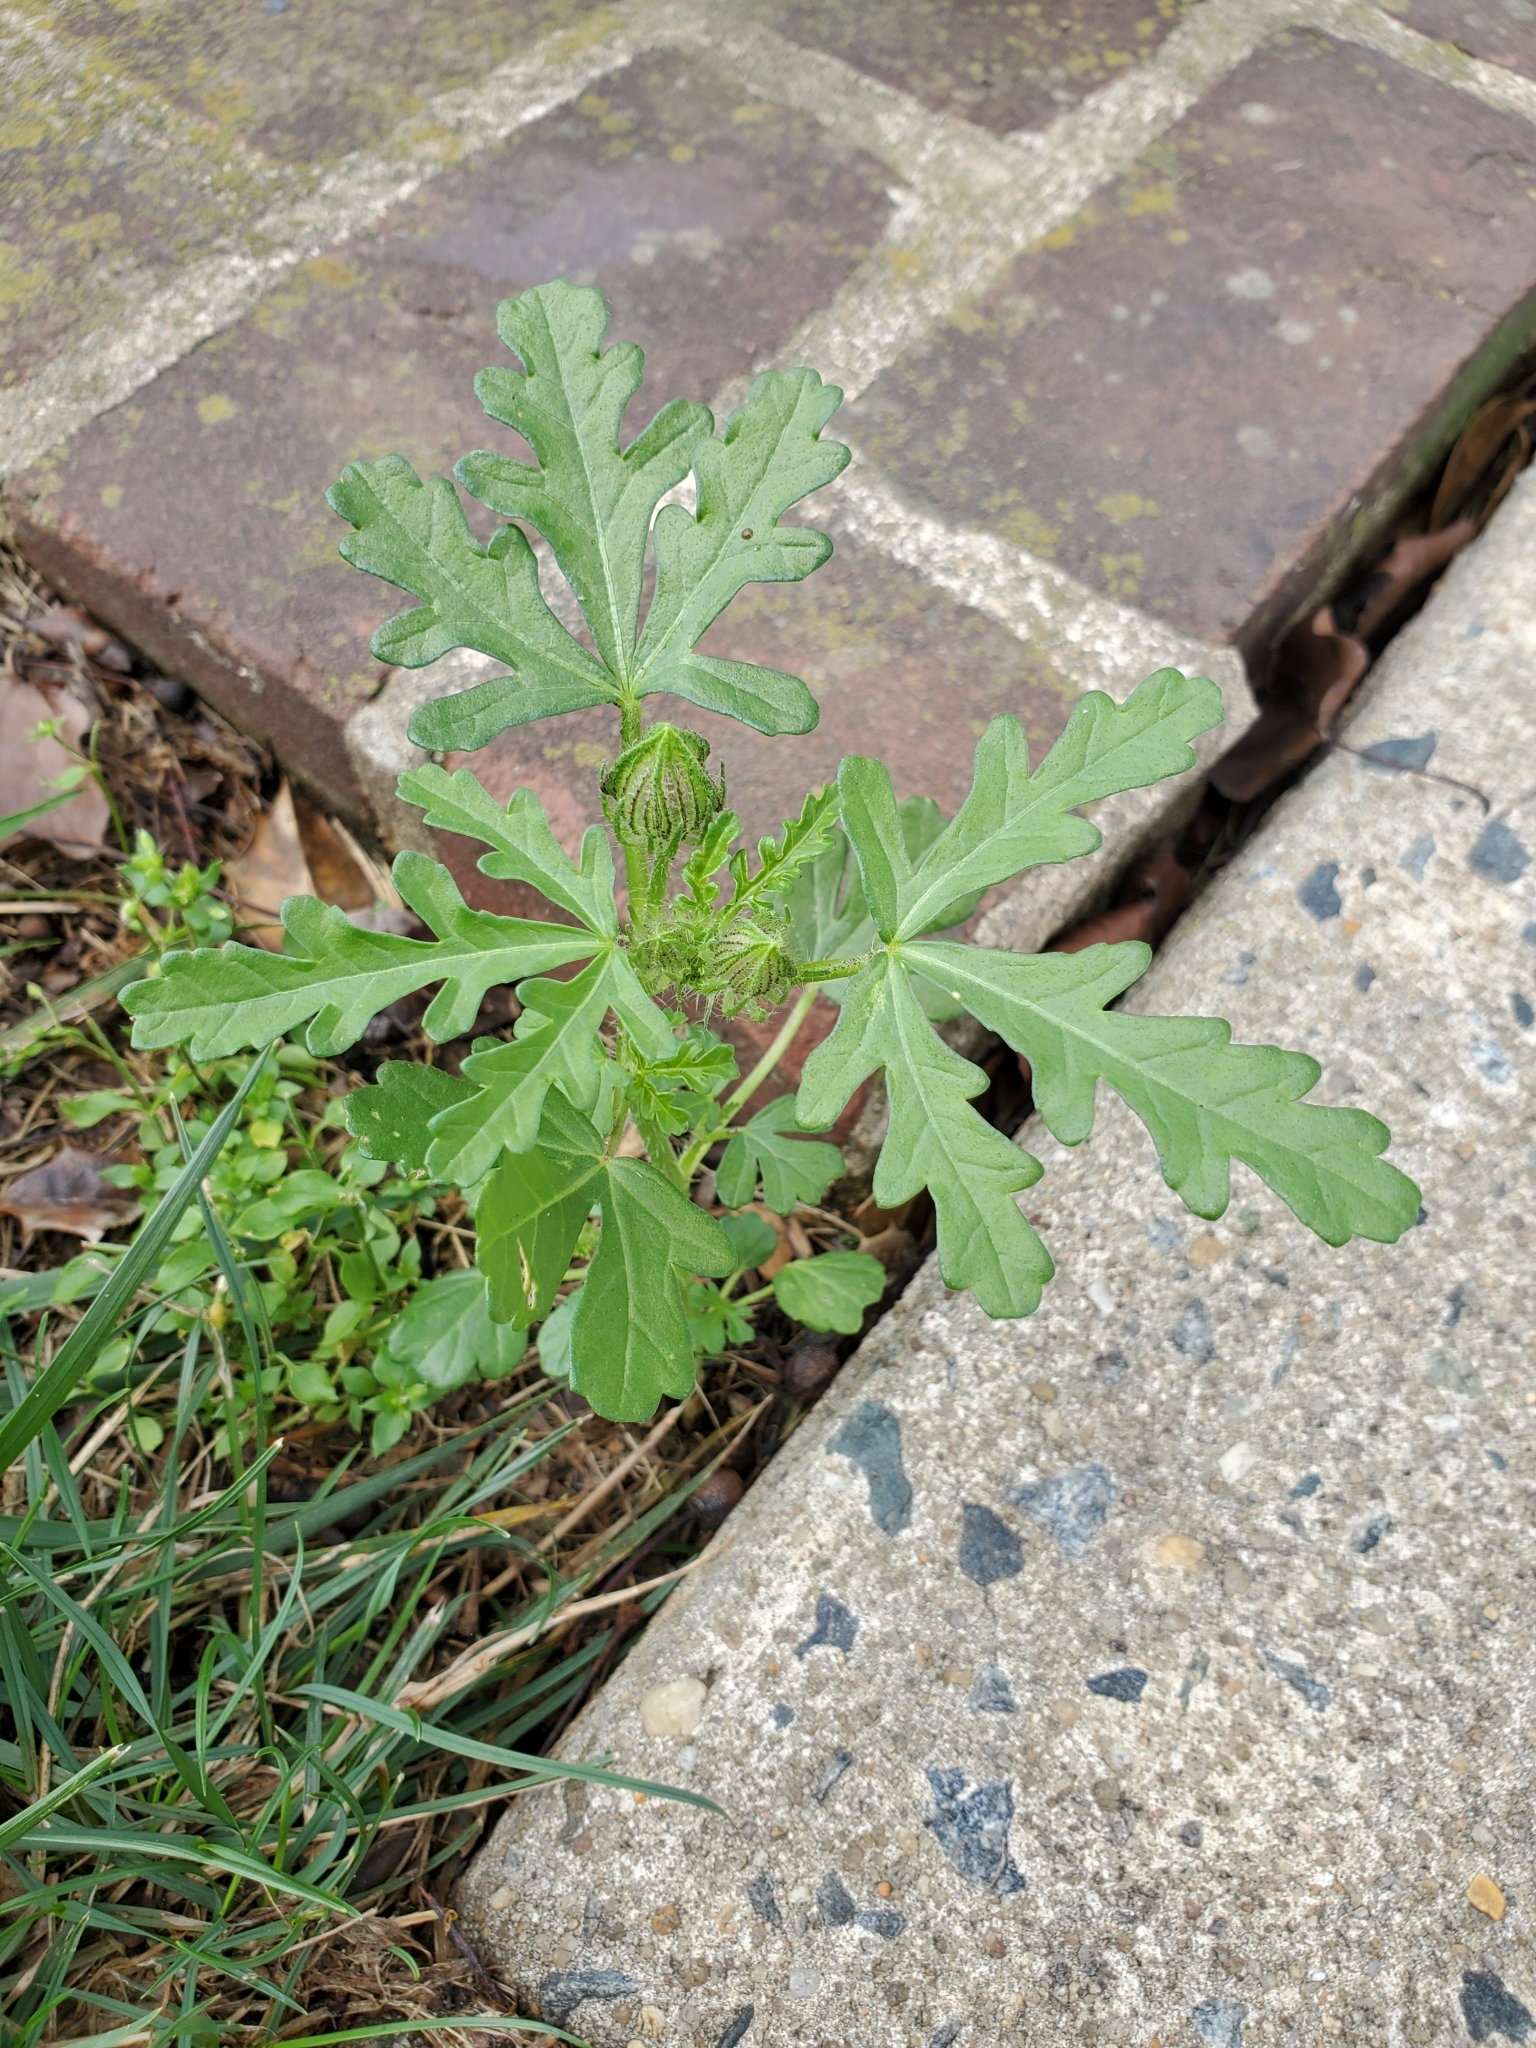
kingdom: Plantae
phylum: Tracheophyta
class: Magnoliopsida
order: Malvales
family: Malvaceae
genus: Hibiscus
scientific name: Hibiscus trionum
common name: Bladder ketmia
